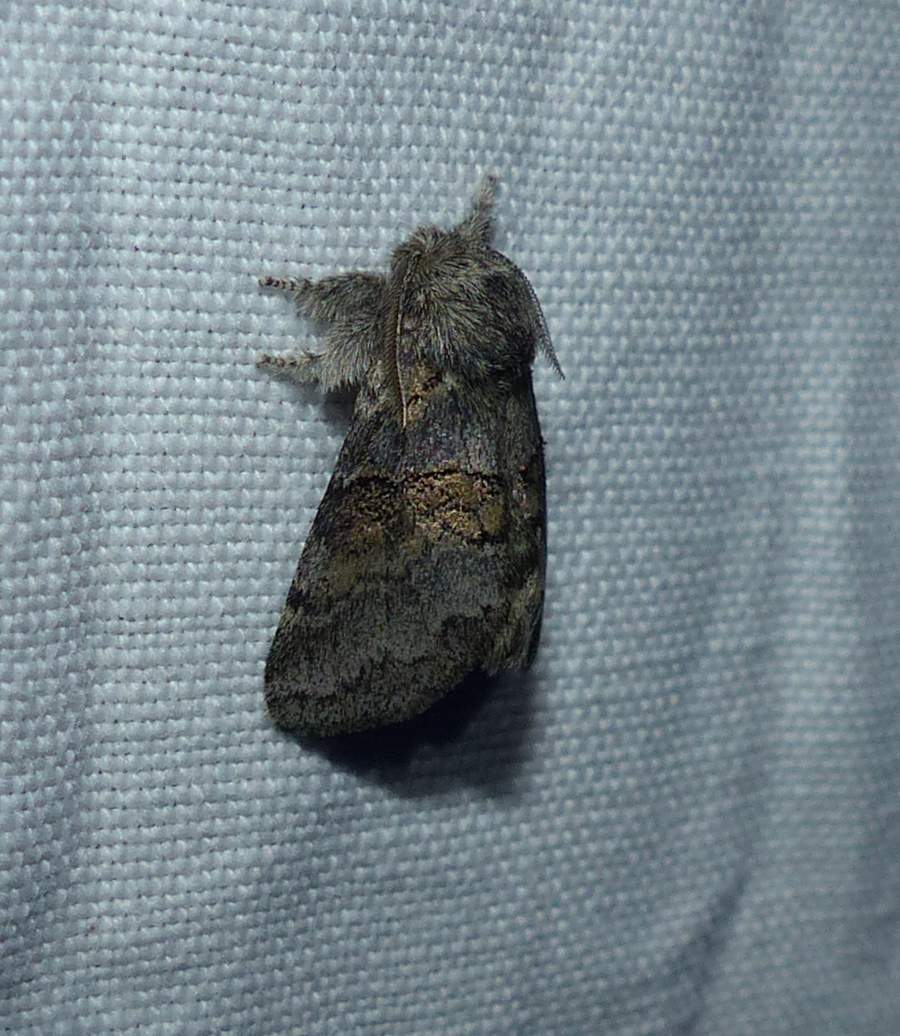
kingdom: Animalia
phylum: Arthropoda
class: Insecta
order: Lepidoptera
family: Notodontidae
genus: Gluphisia
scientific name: Gluphisia septentrionis
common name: Common gluphisia
